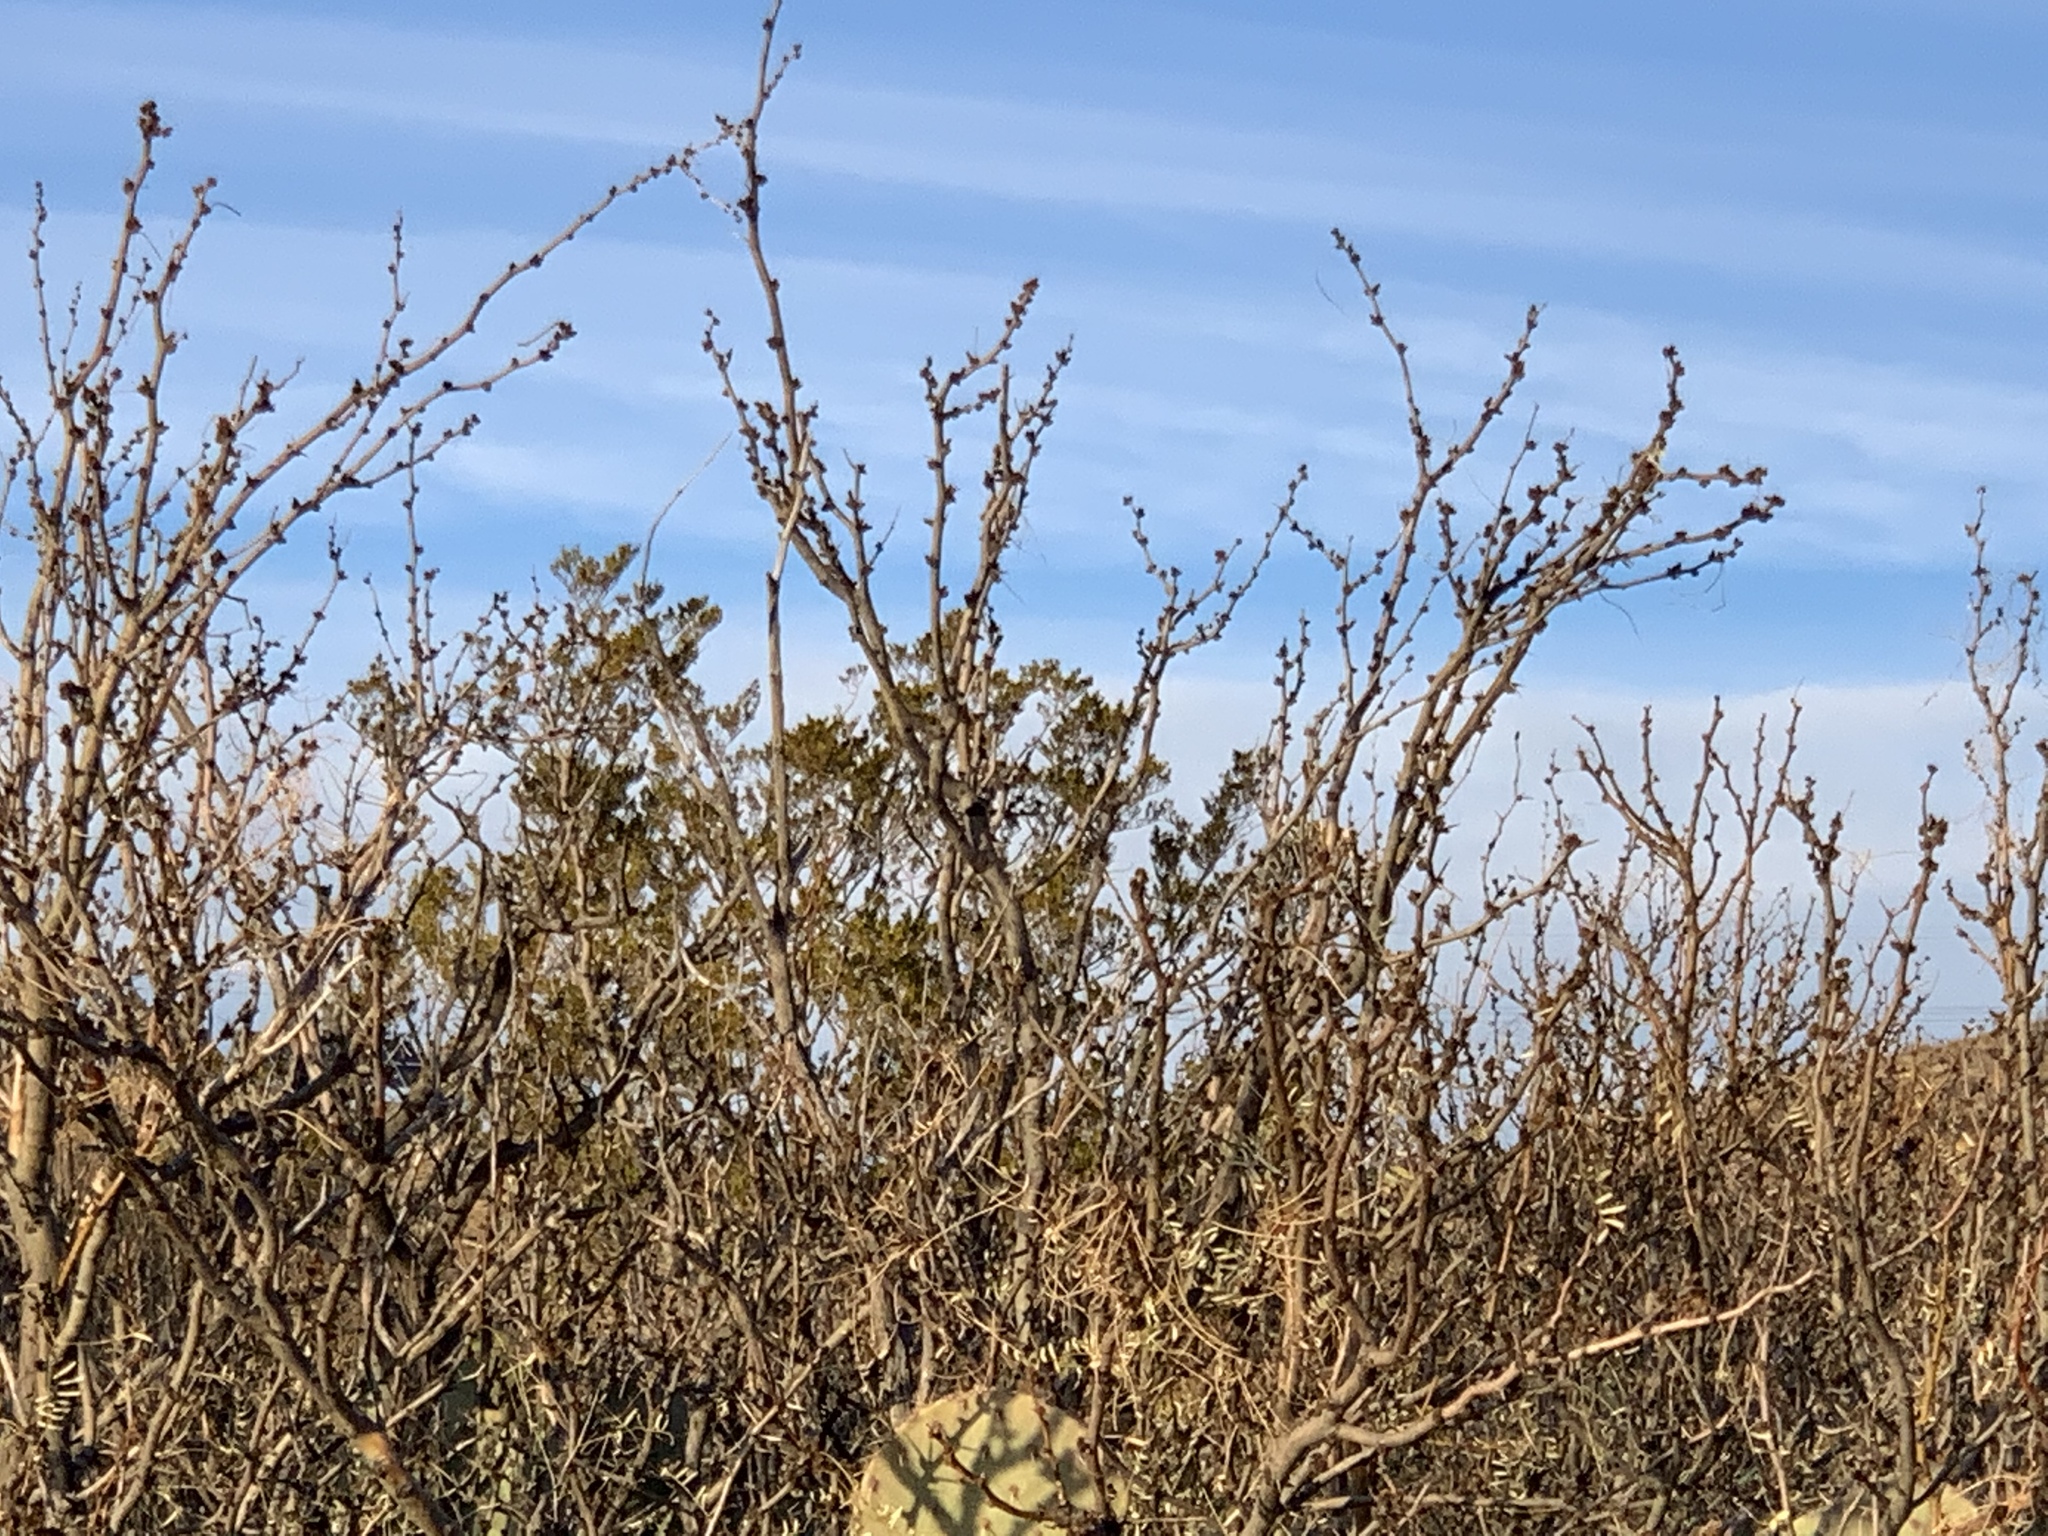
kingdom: Plantae
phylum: Tracheophyta
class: Magnoliopsida
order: Fabales
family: Fabaceae
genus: Prosopis
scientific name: Prosopis glandulosa
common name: Honey mesquite
